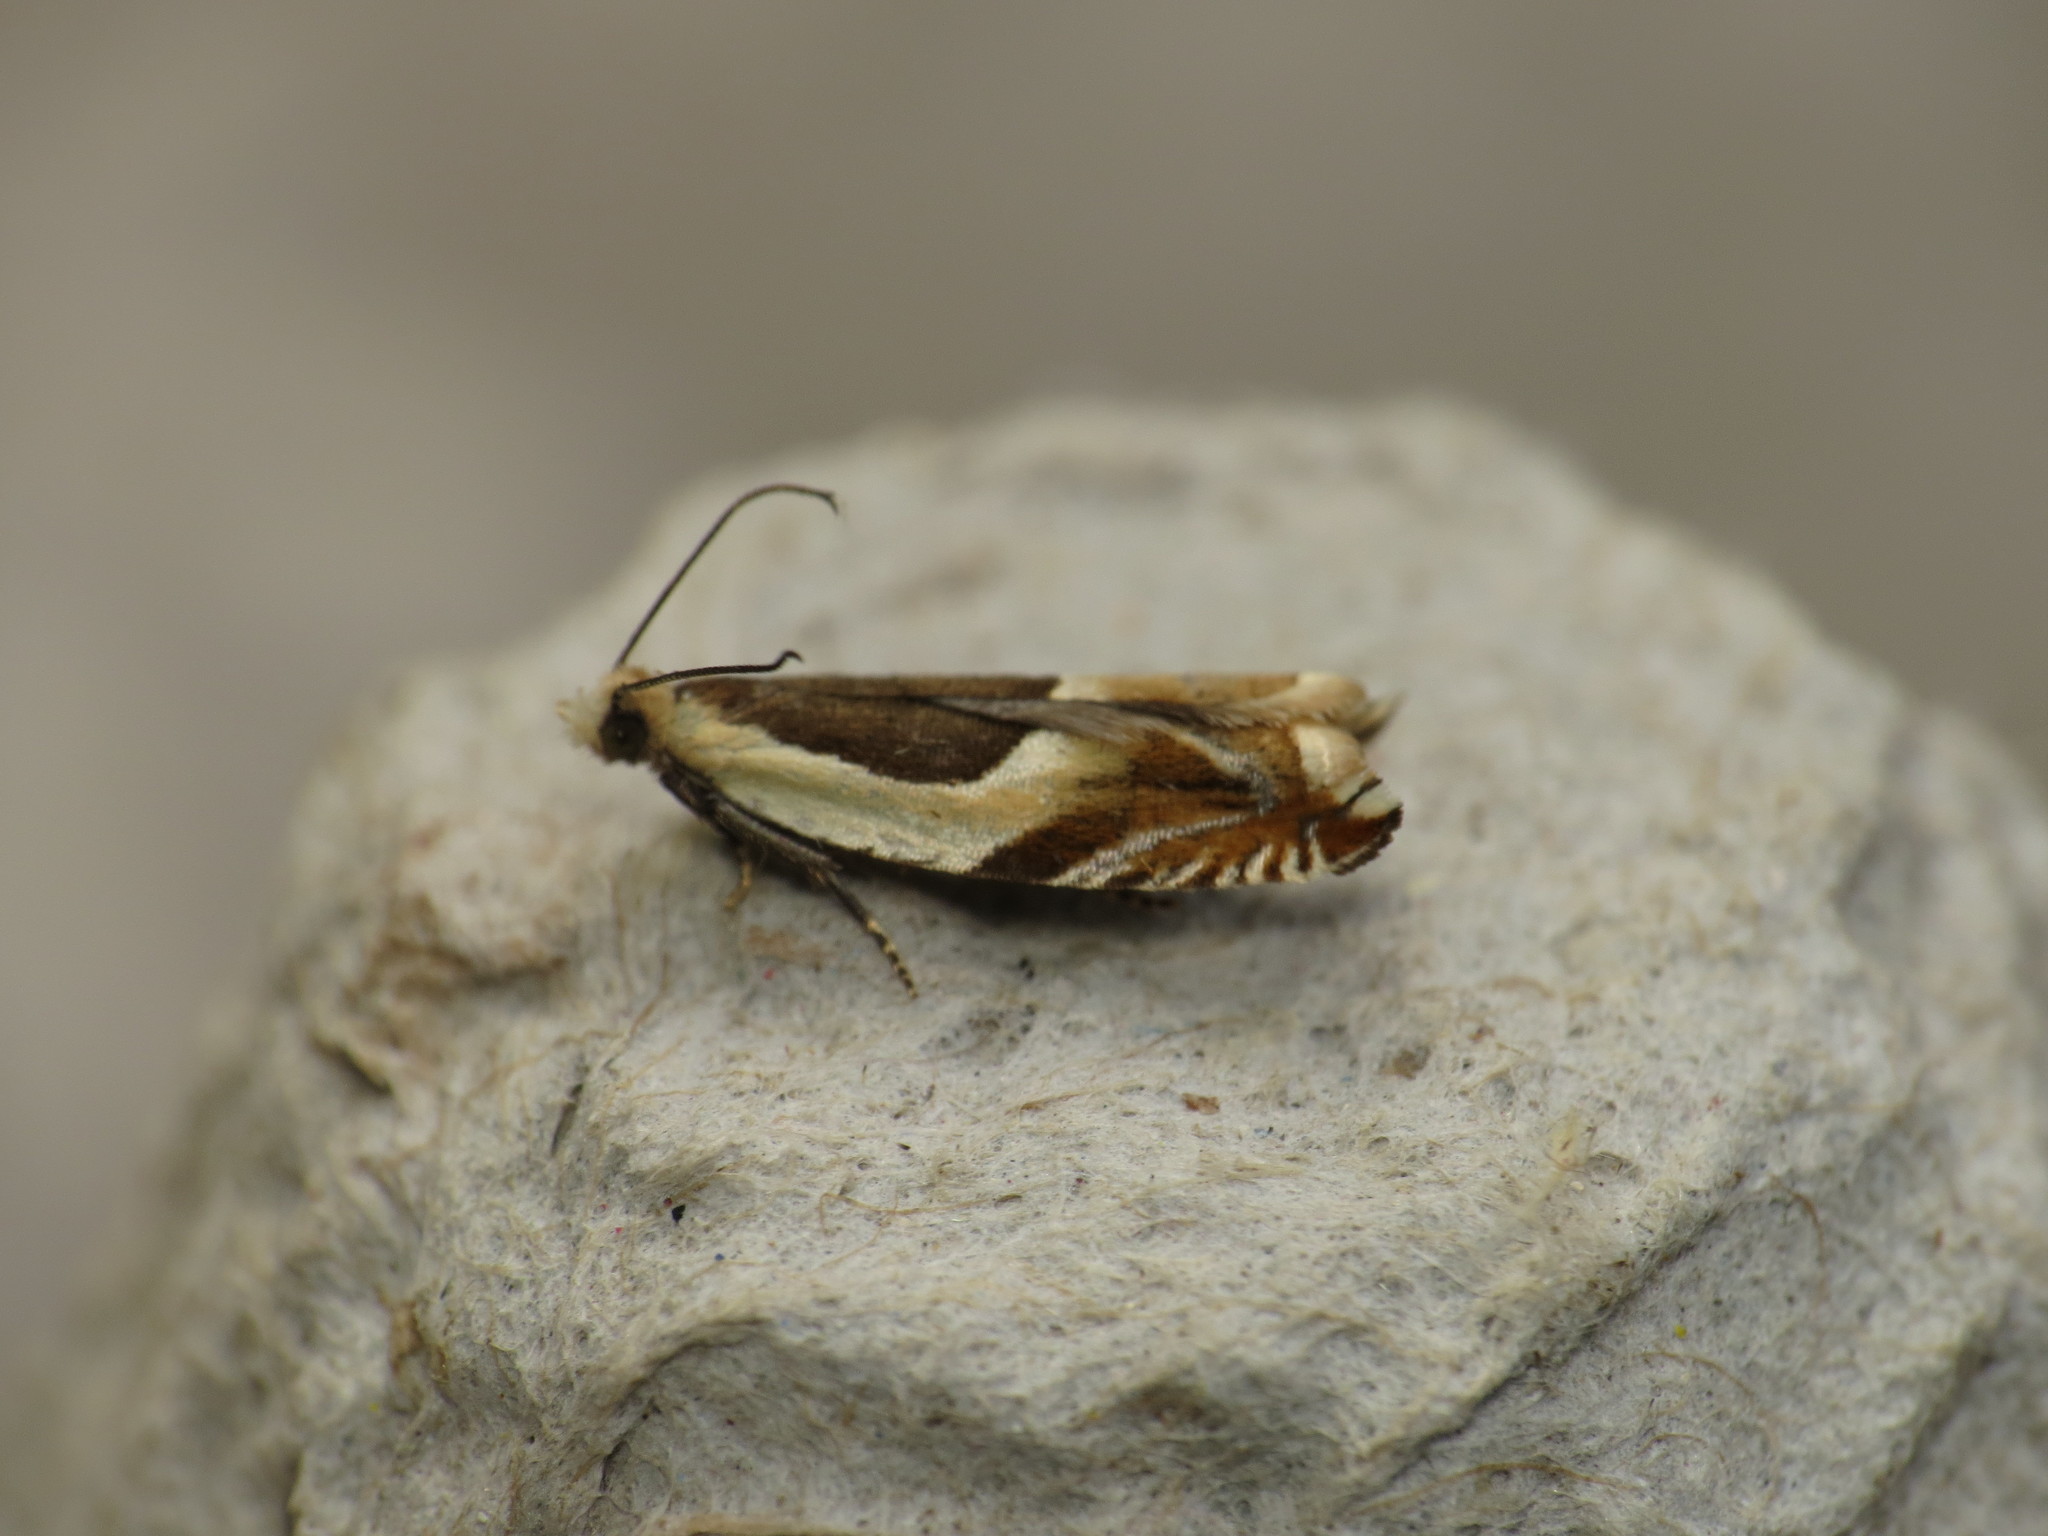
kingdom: Animalia
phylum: Arthropoda
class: Insecta
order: Lepidoptera
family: Tortricidae
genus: Ancylis
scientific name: Ancylis badiana
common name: Common roller
